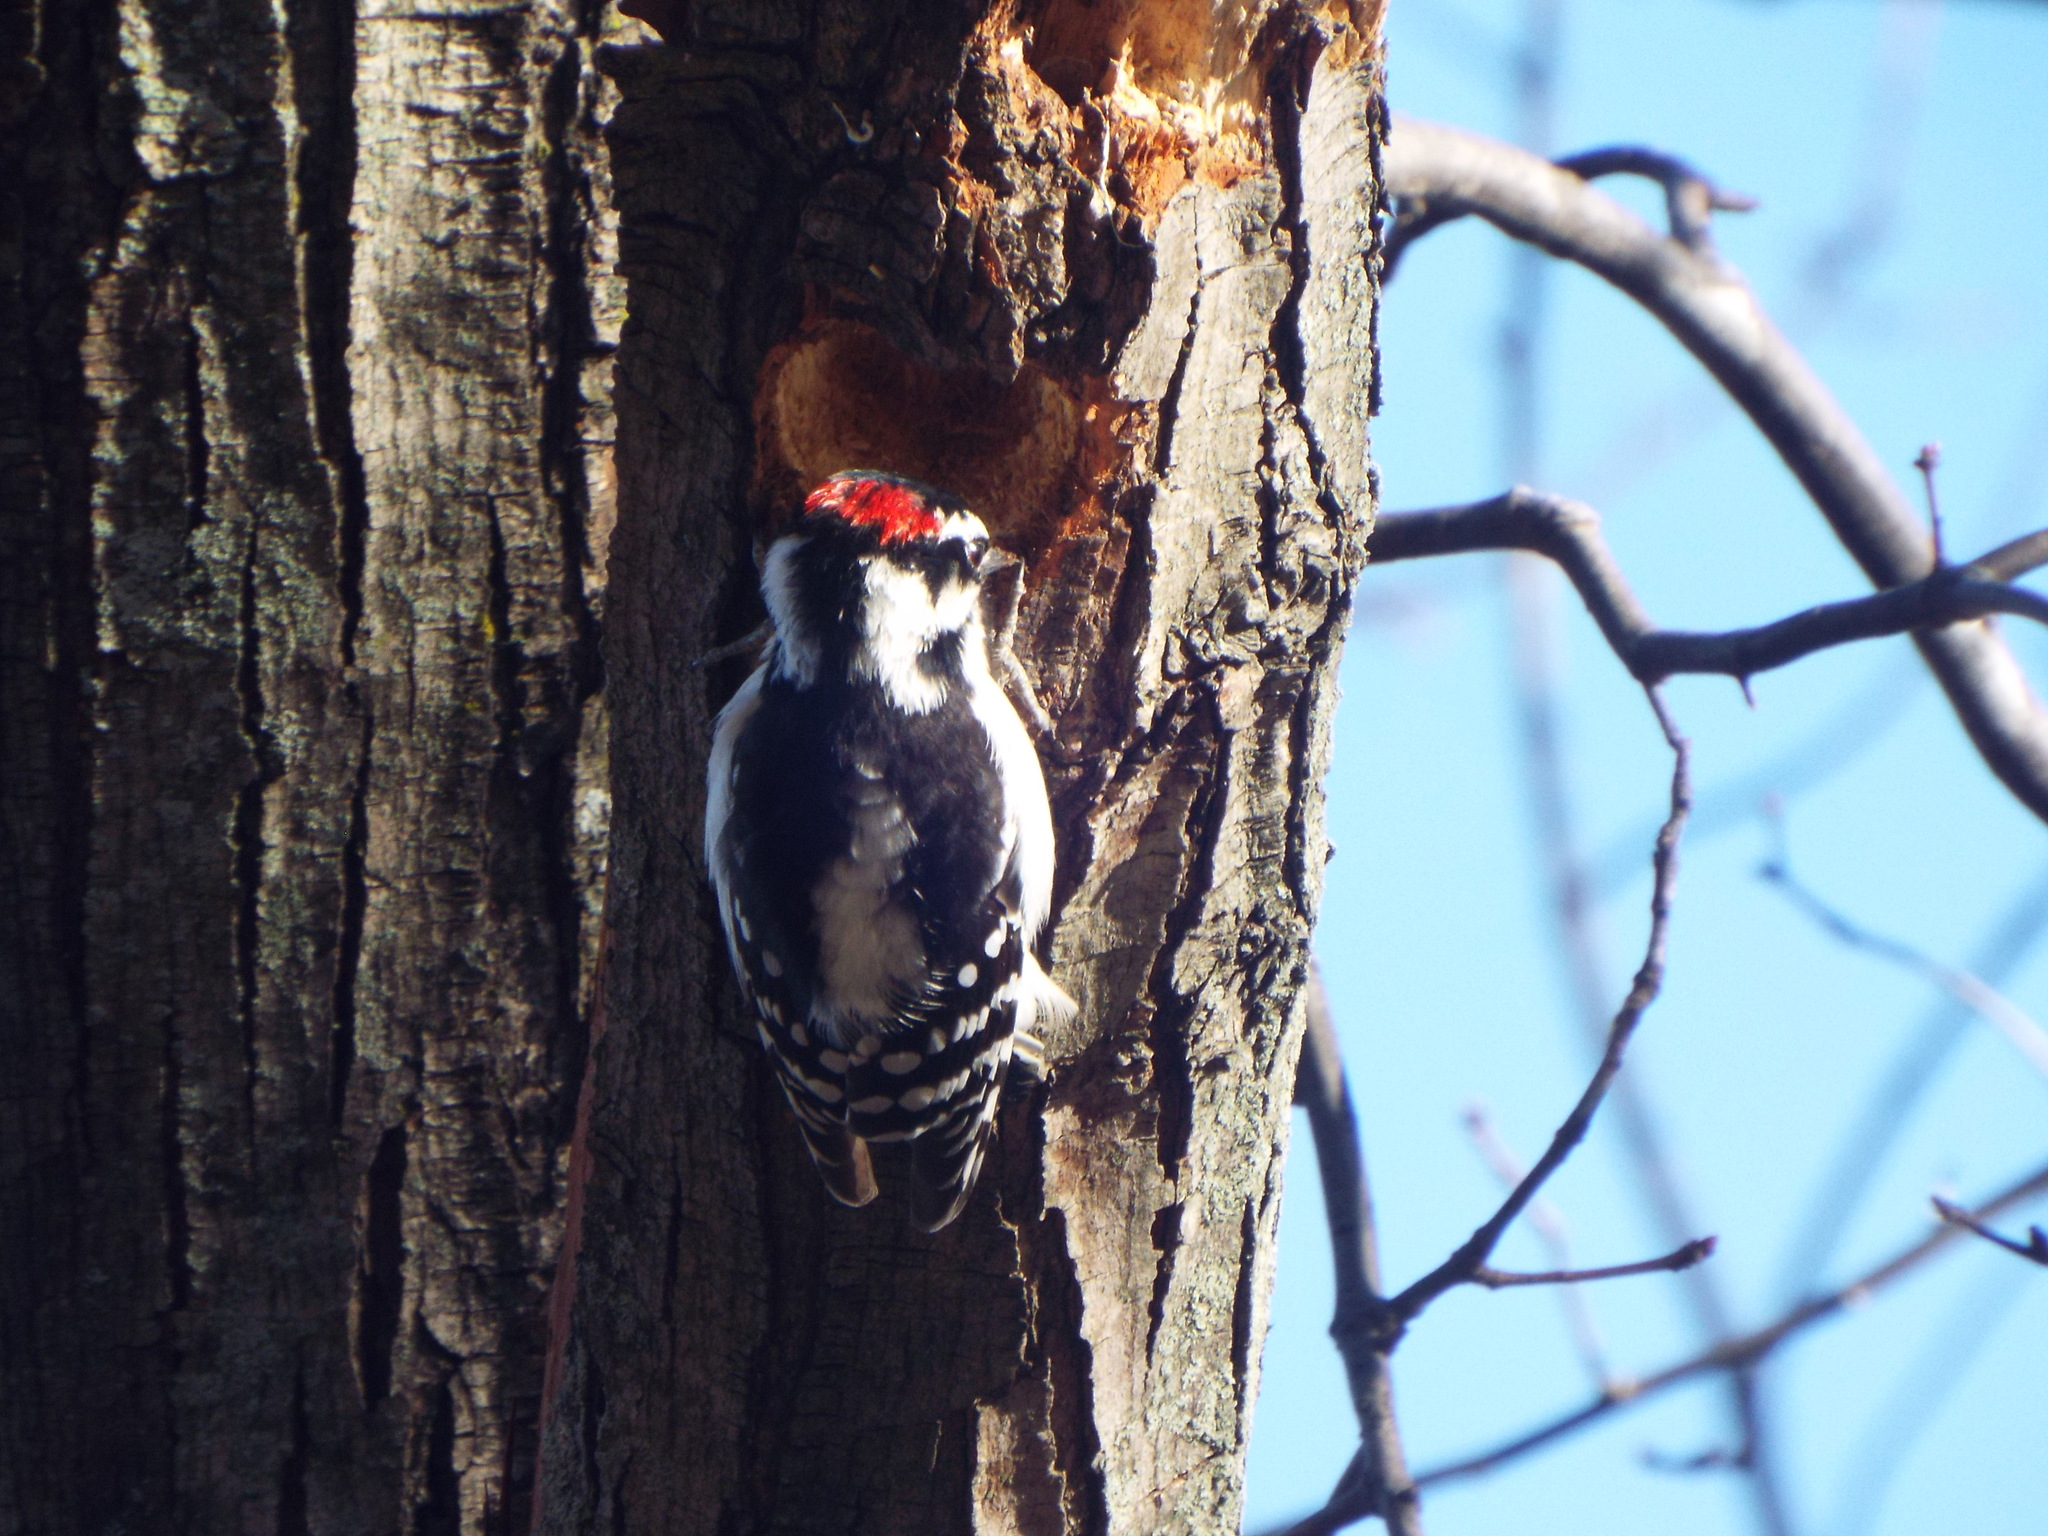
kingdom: Animalia
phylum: Chordata
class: Aves
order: Piciformes
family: Picidae
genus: Dryobates
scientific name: Dryobates pubescens
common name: Downy woodpecker
